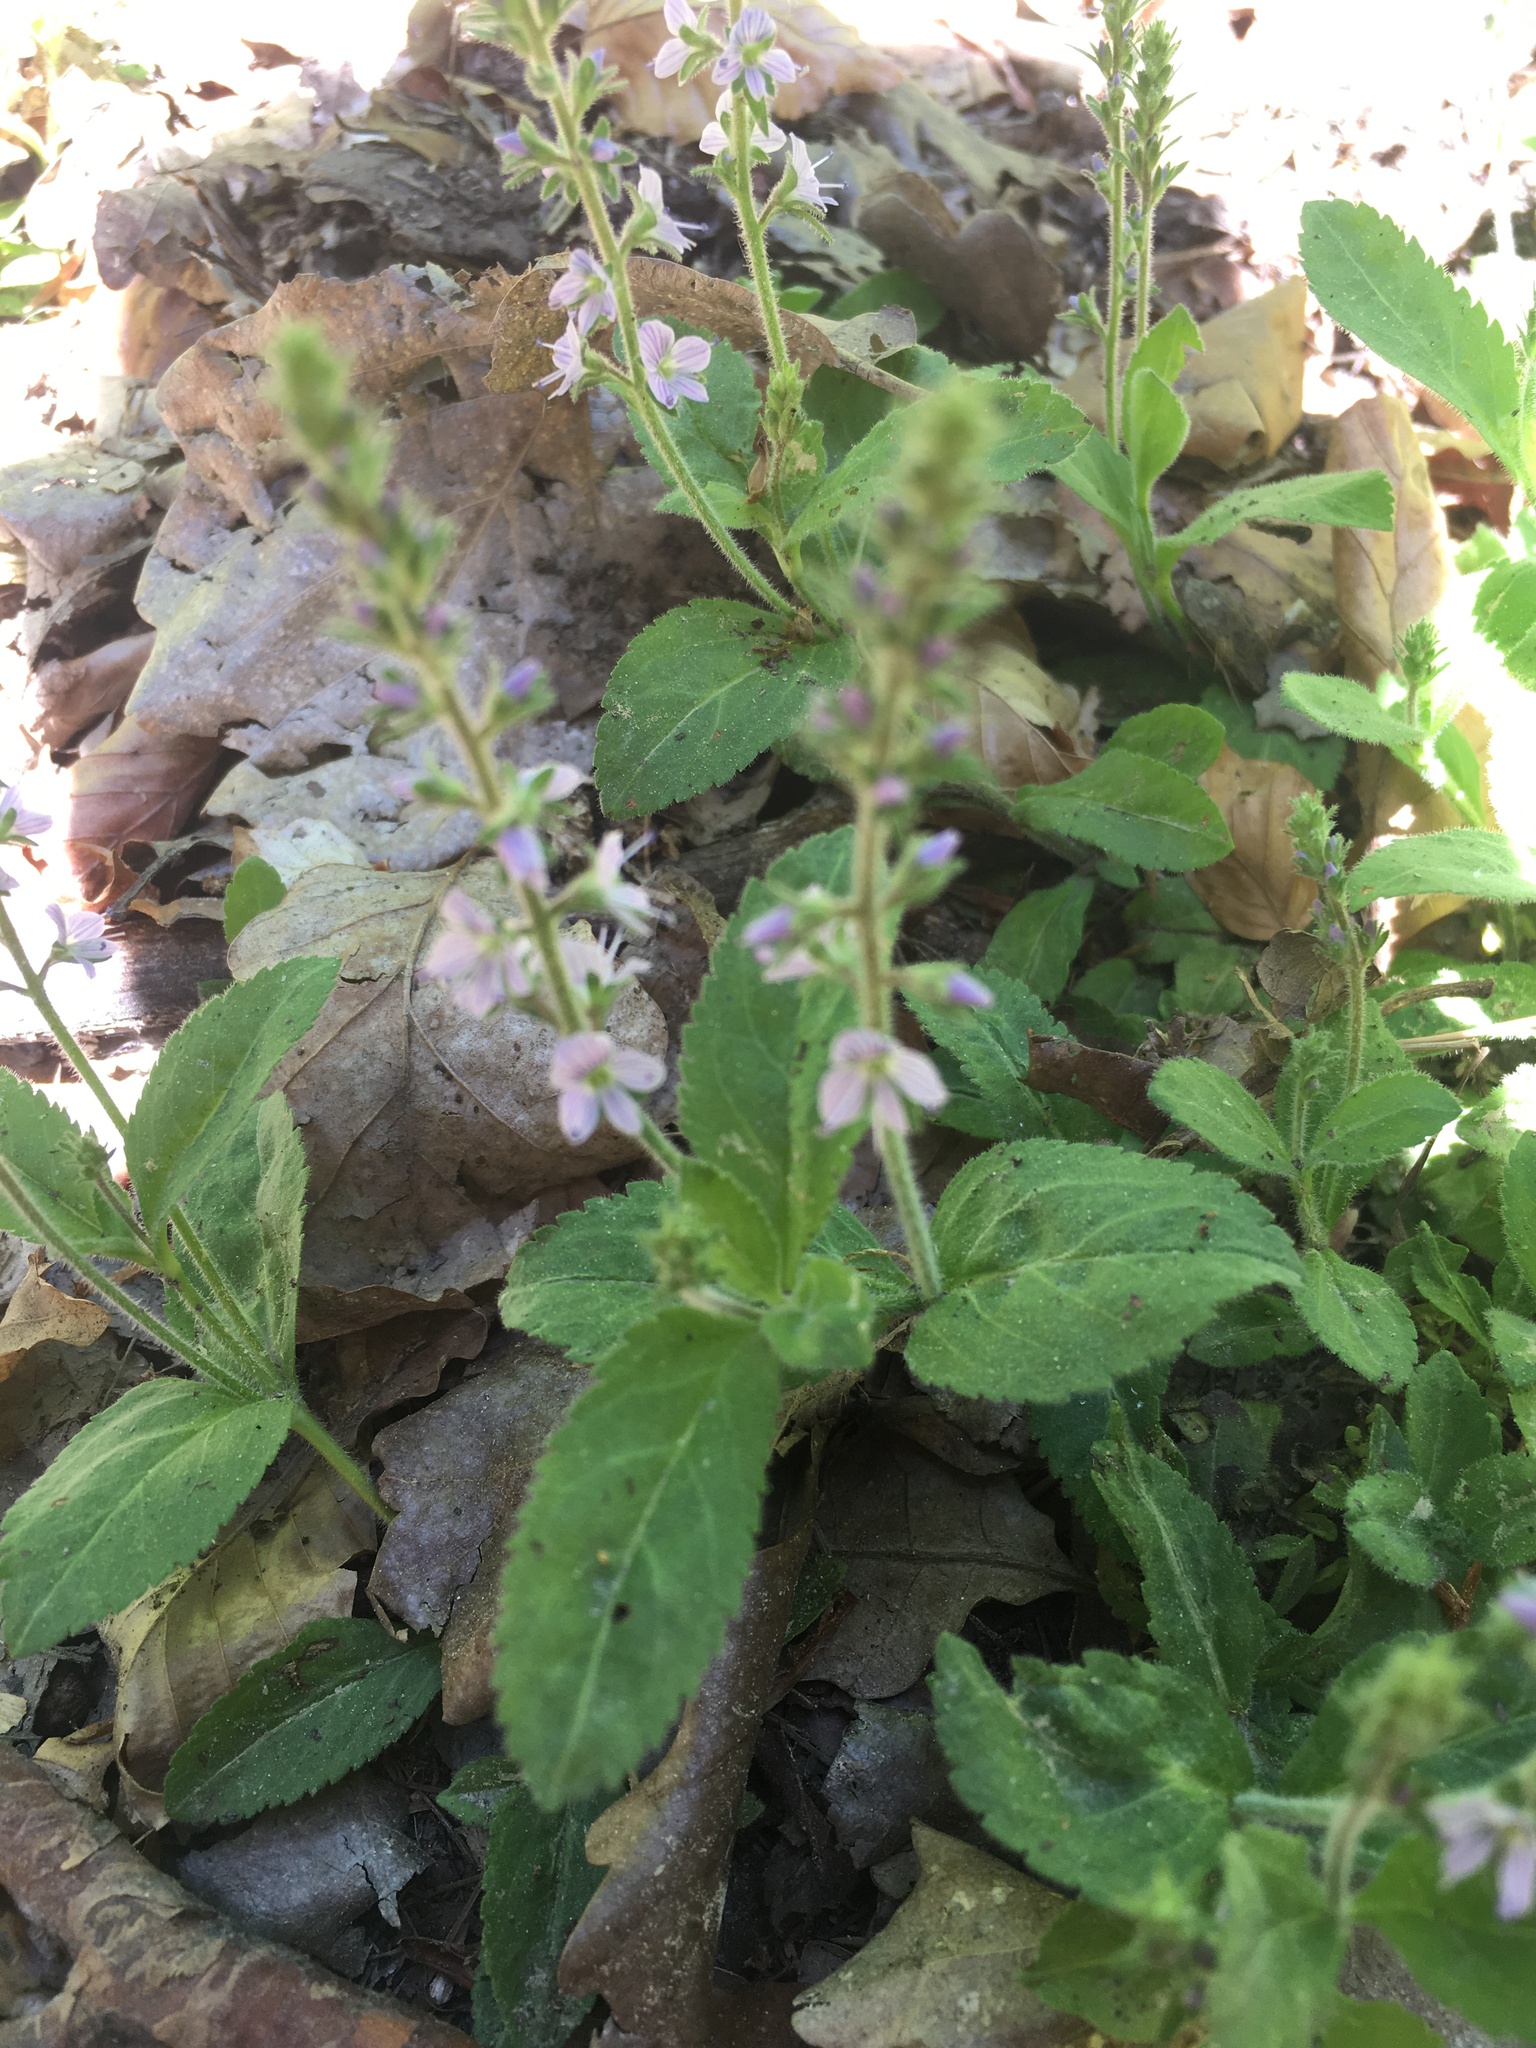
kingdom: Plantae
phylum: Tracheophyta
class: Magnoliopsida
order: Lamiales
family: Plantaginaceae
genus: Veronica
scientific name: Veronica officinalis
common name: Common speedwell
